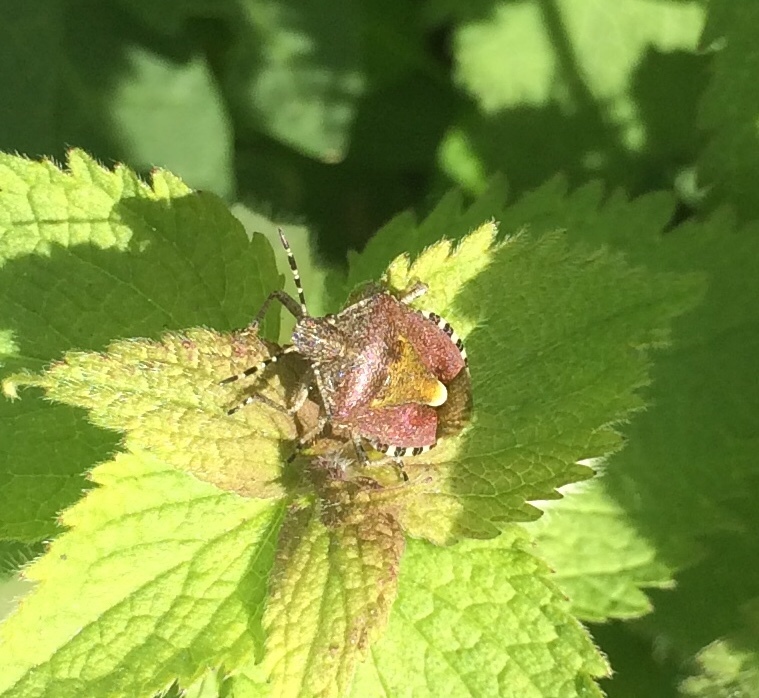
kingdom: Animalia
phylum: Arthropoda
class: Insecta
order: Hemiptera
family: Pentatomidae
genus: Dolycoris
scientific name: Dolycoris baccarum
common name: Sloe bug
